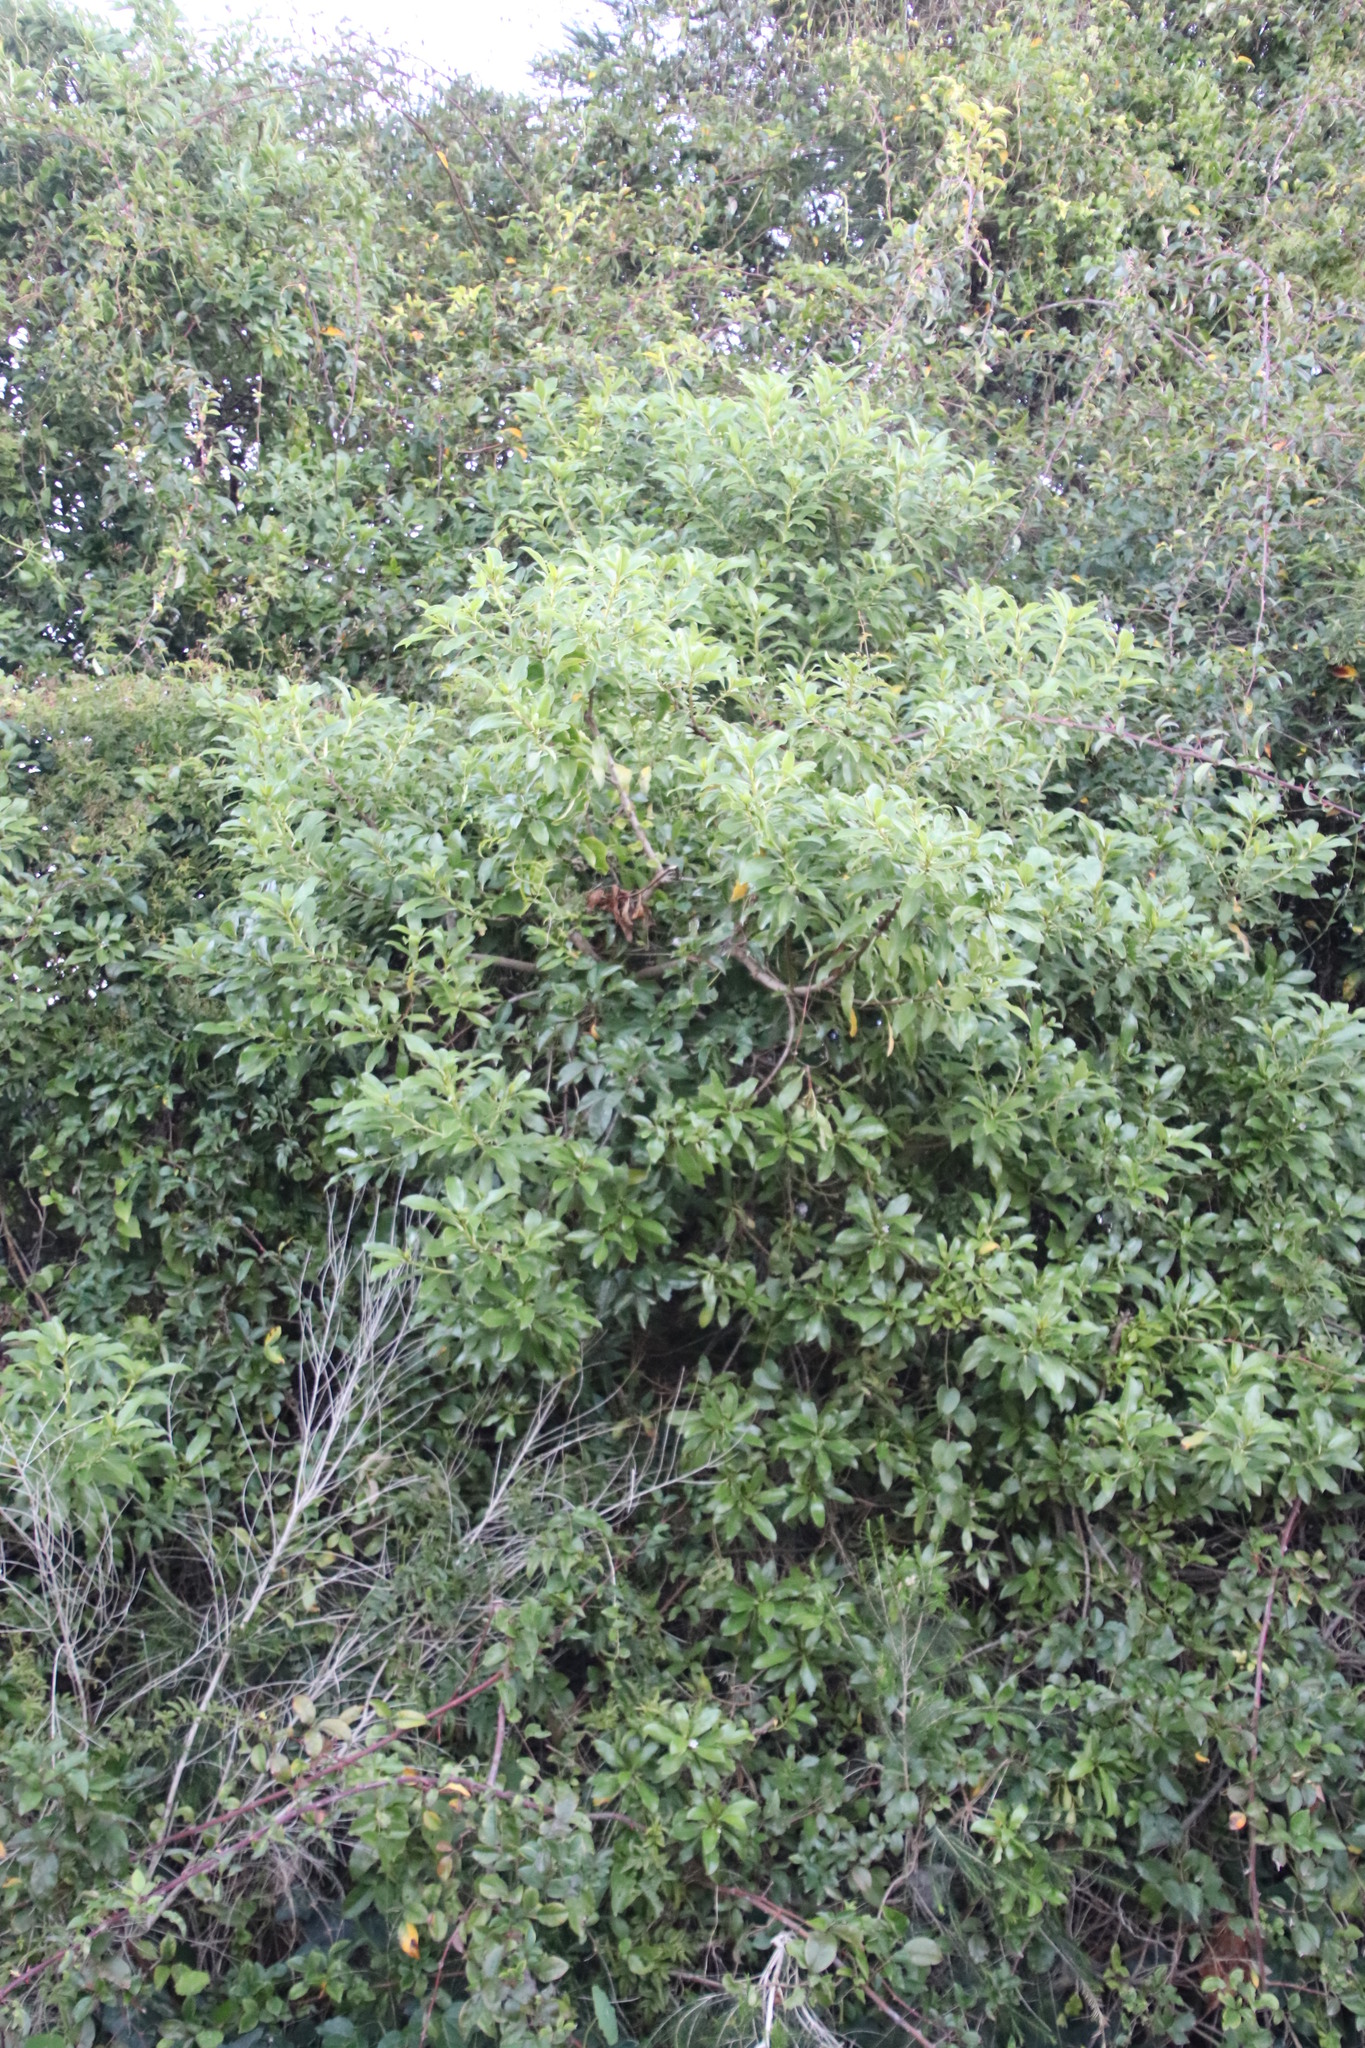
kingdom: Plantae
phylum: Tracheophyta
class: Magnoliopsida
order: Lamiales
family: Scrophulariaceae
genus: Myoporum
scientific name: Myoporum laetum
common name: Ngaio tree
